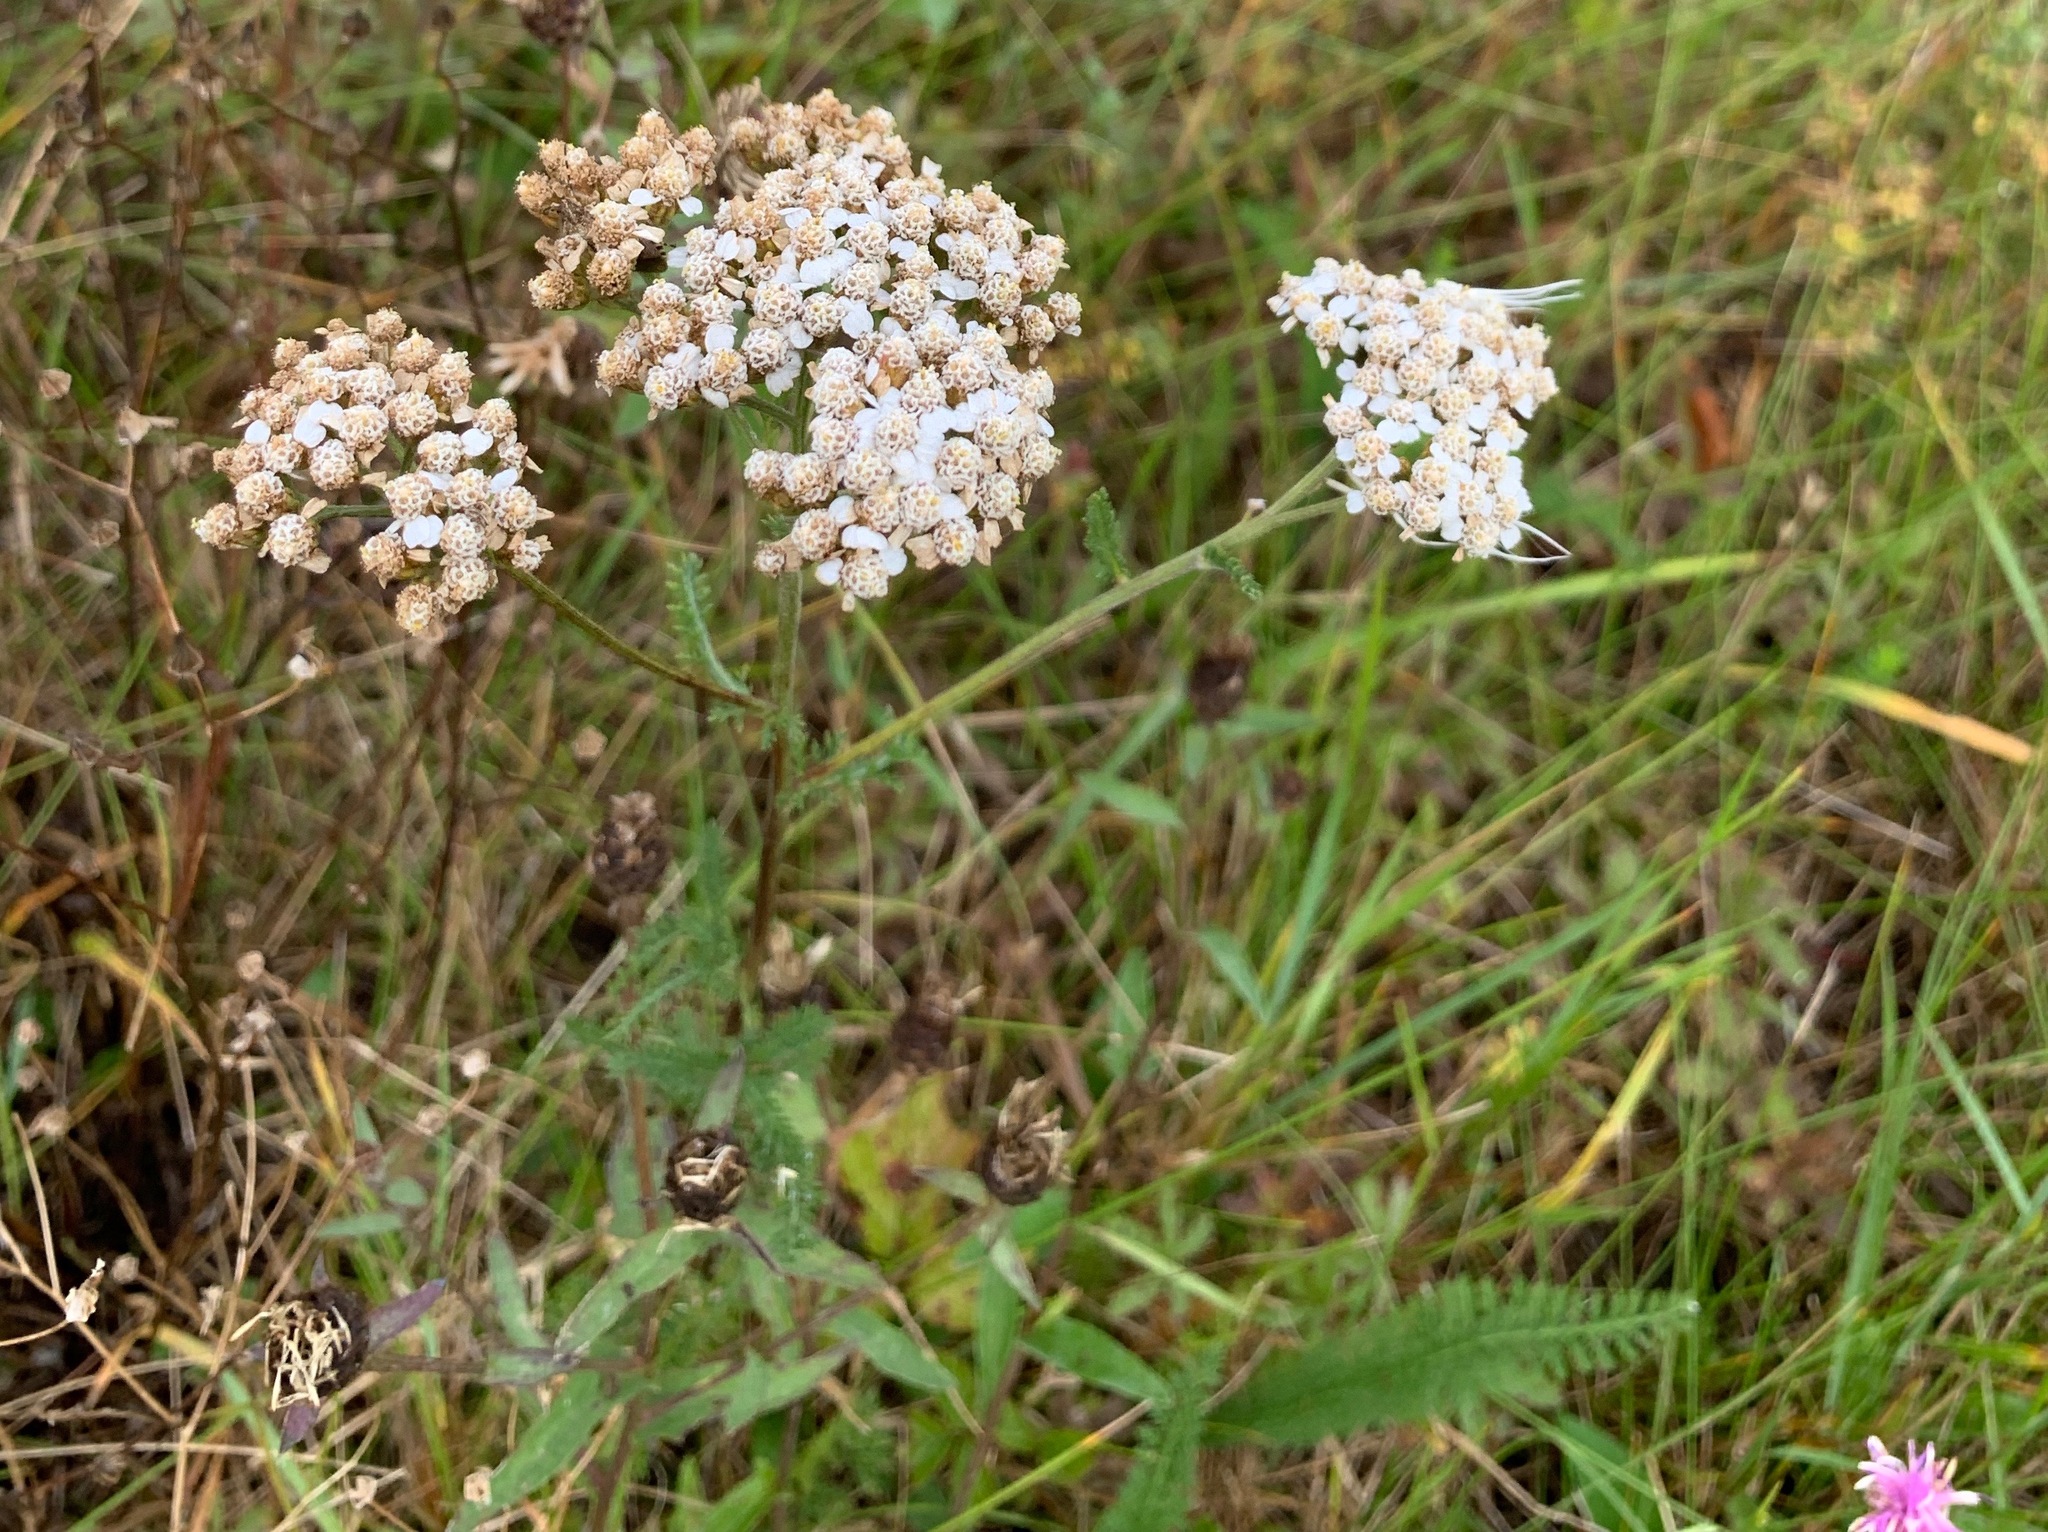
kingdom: Plantae
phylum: Tracheophyta
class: Magnoliopsida
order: Asterales
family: Asteraceae
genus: Achillea
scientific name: Achillea millefolium
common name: Yarrow
